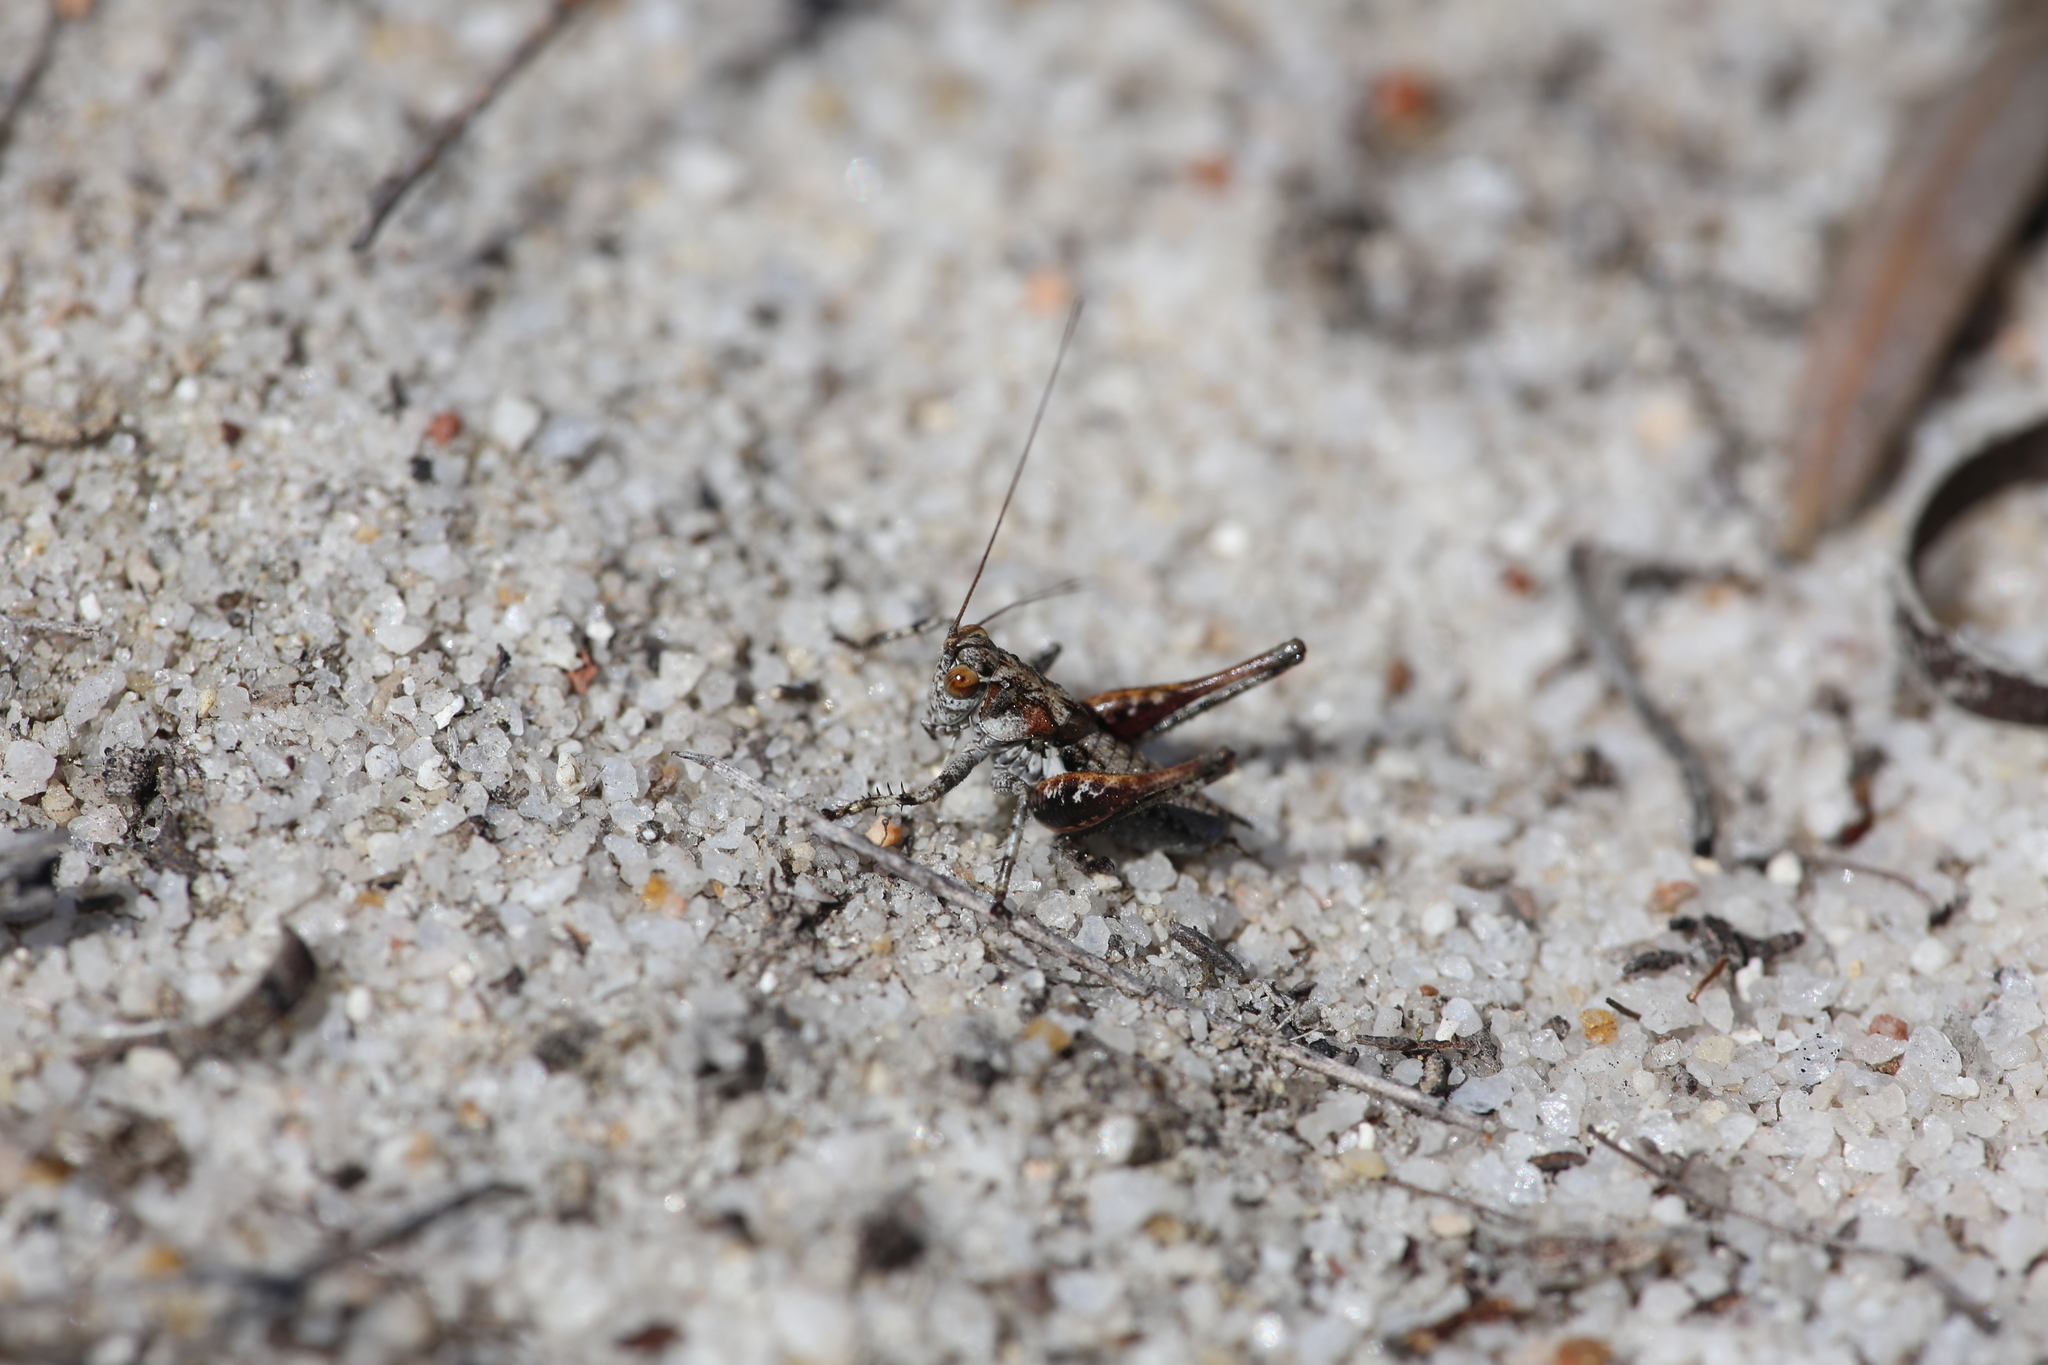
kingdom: Animalia
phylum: Arthropoda
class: Insecta
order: Orthoptera
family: Tettigoniidae
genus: Ixalodectes
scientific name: Ixalodectes whitei
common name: White's elusive shield-back
